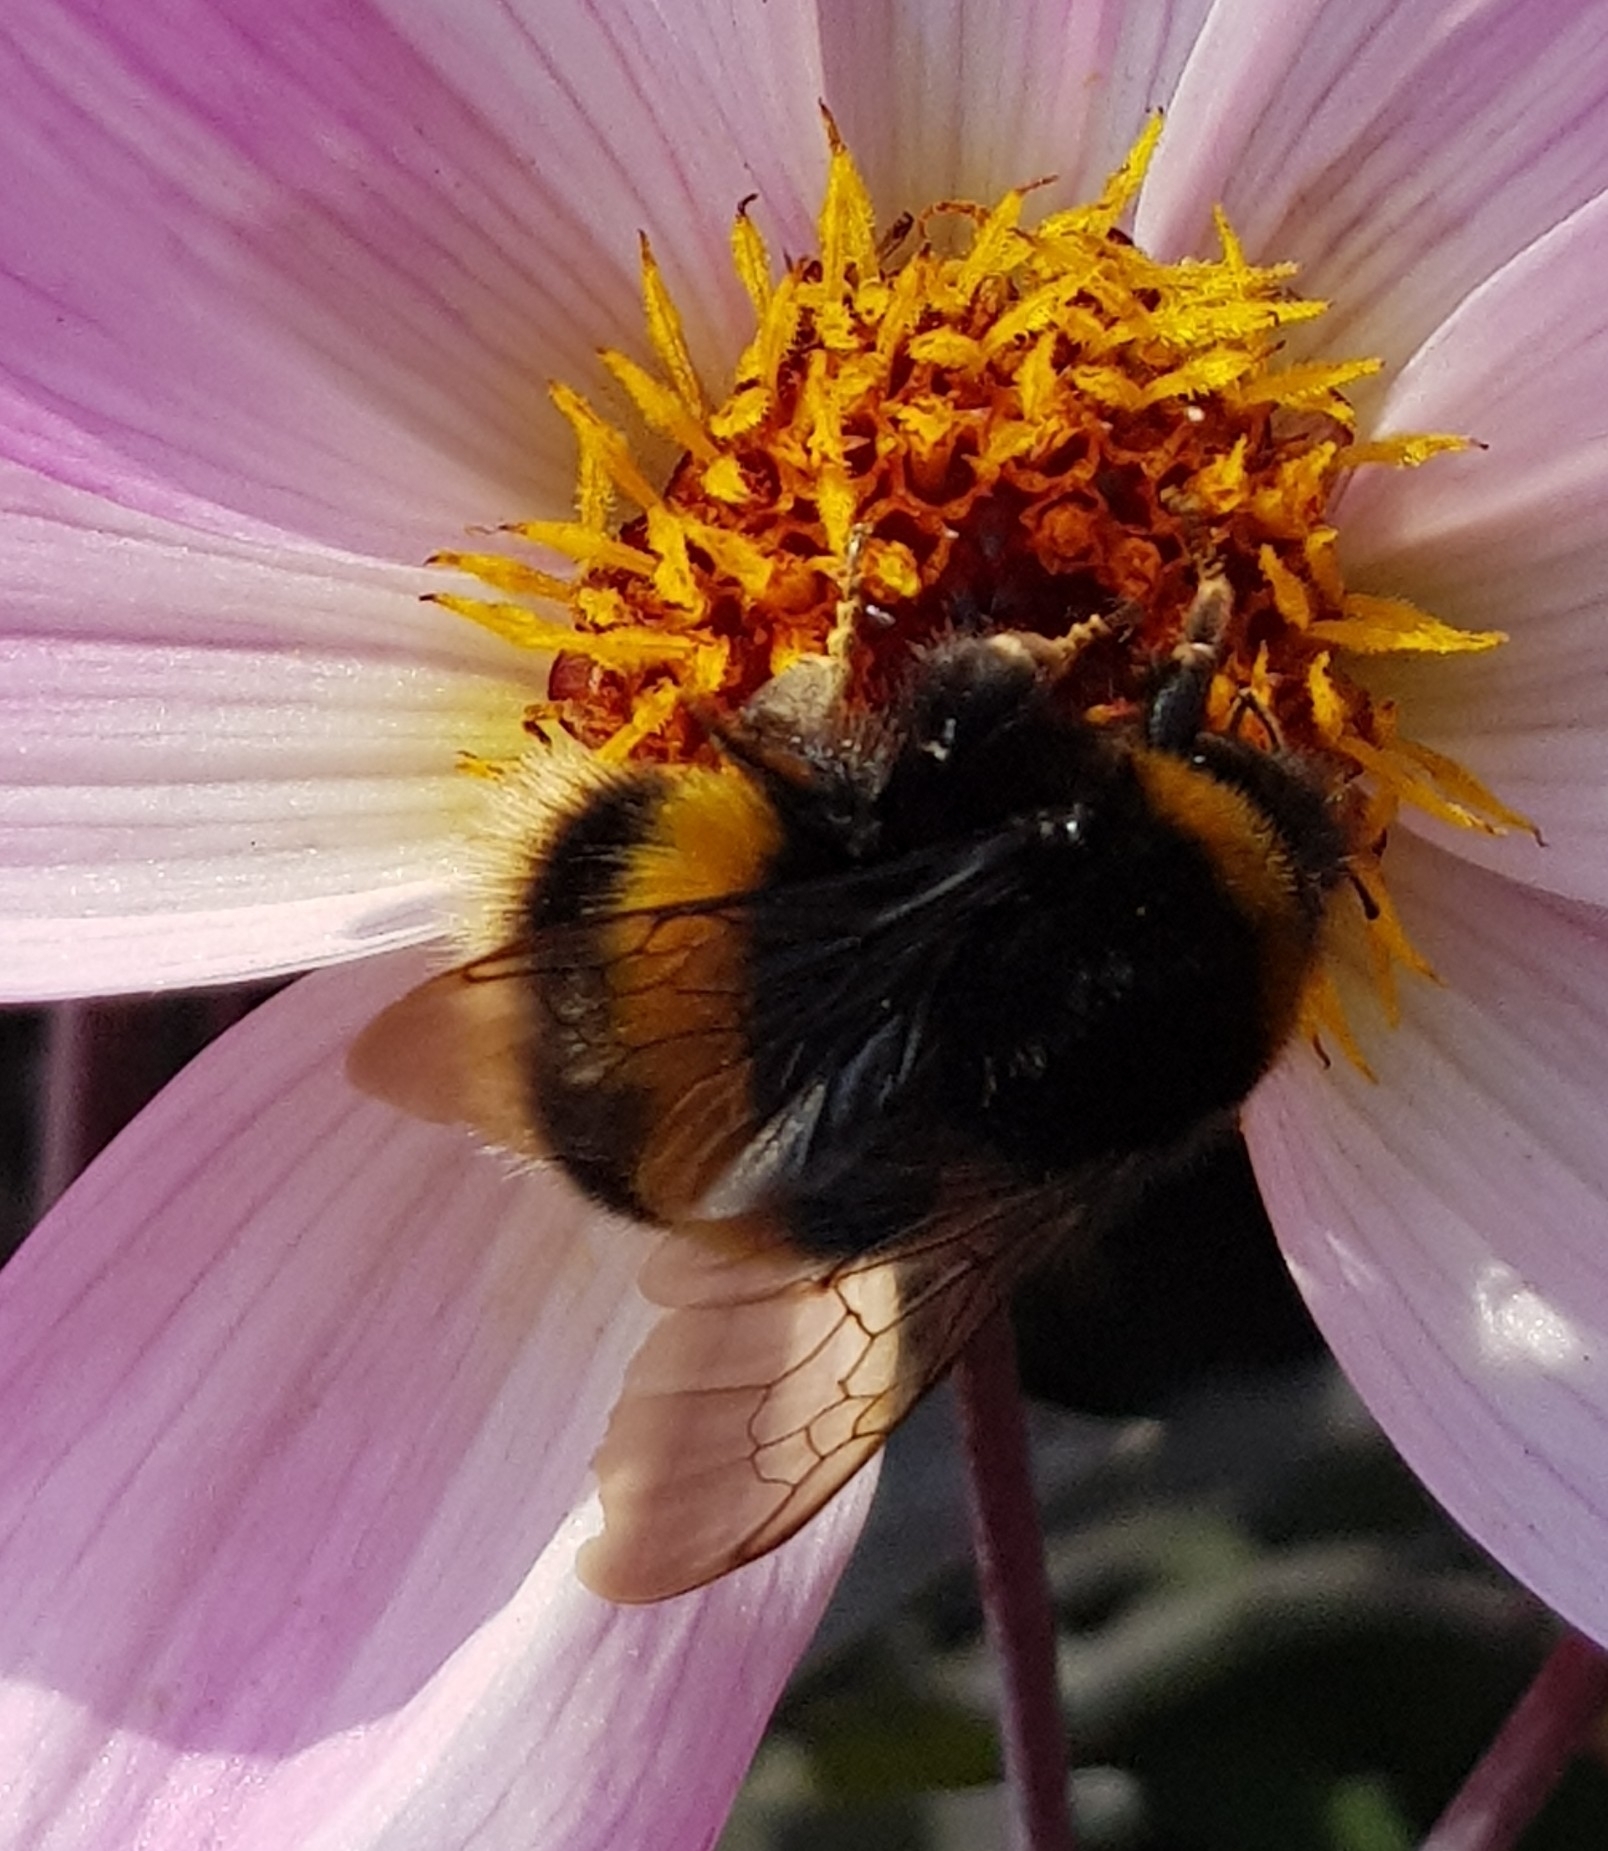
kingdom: Animalia
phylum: Arthropoda
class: Insecta
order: Hymenoptera
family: Apidae
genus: Bombus
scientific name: Bombus terrestris
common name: Buff-tailed bumblebee
